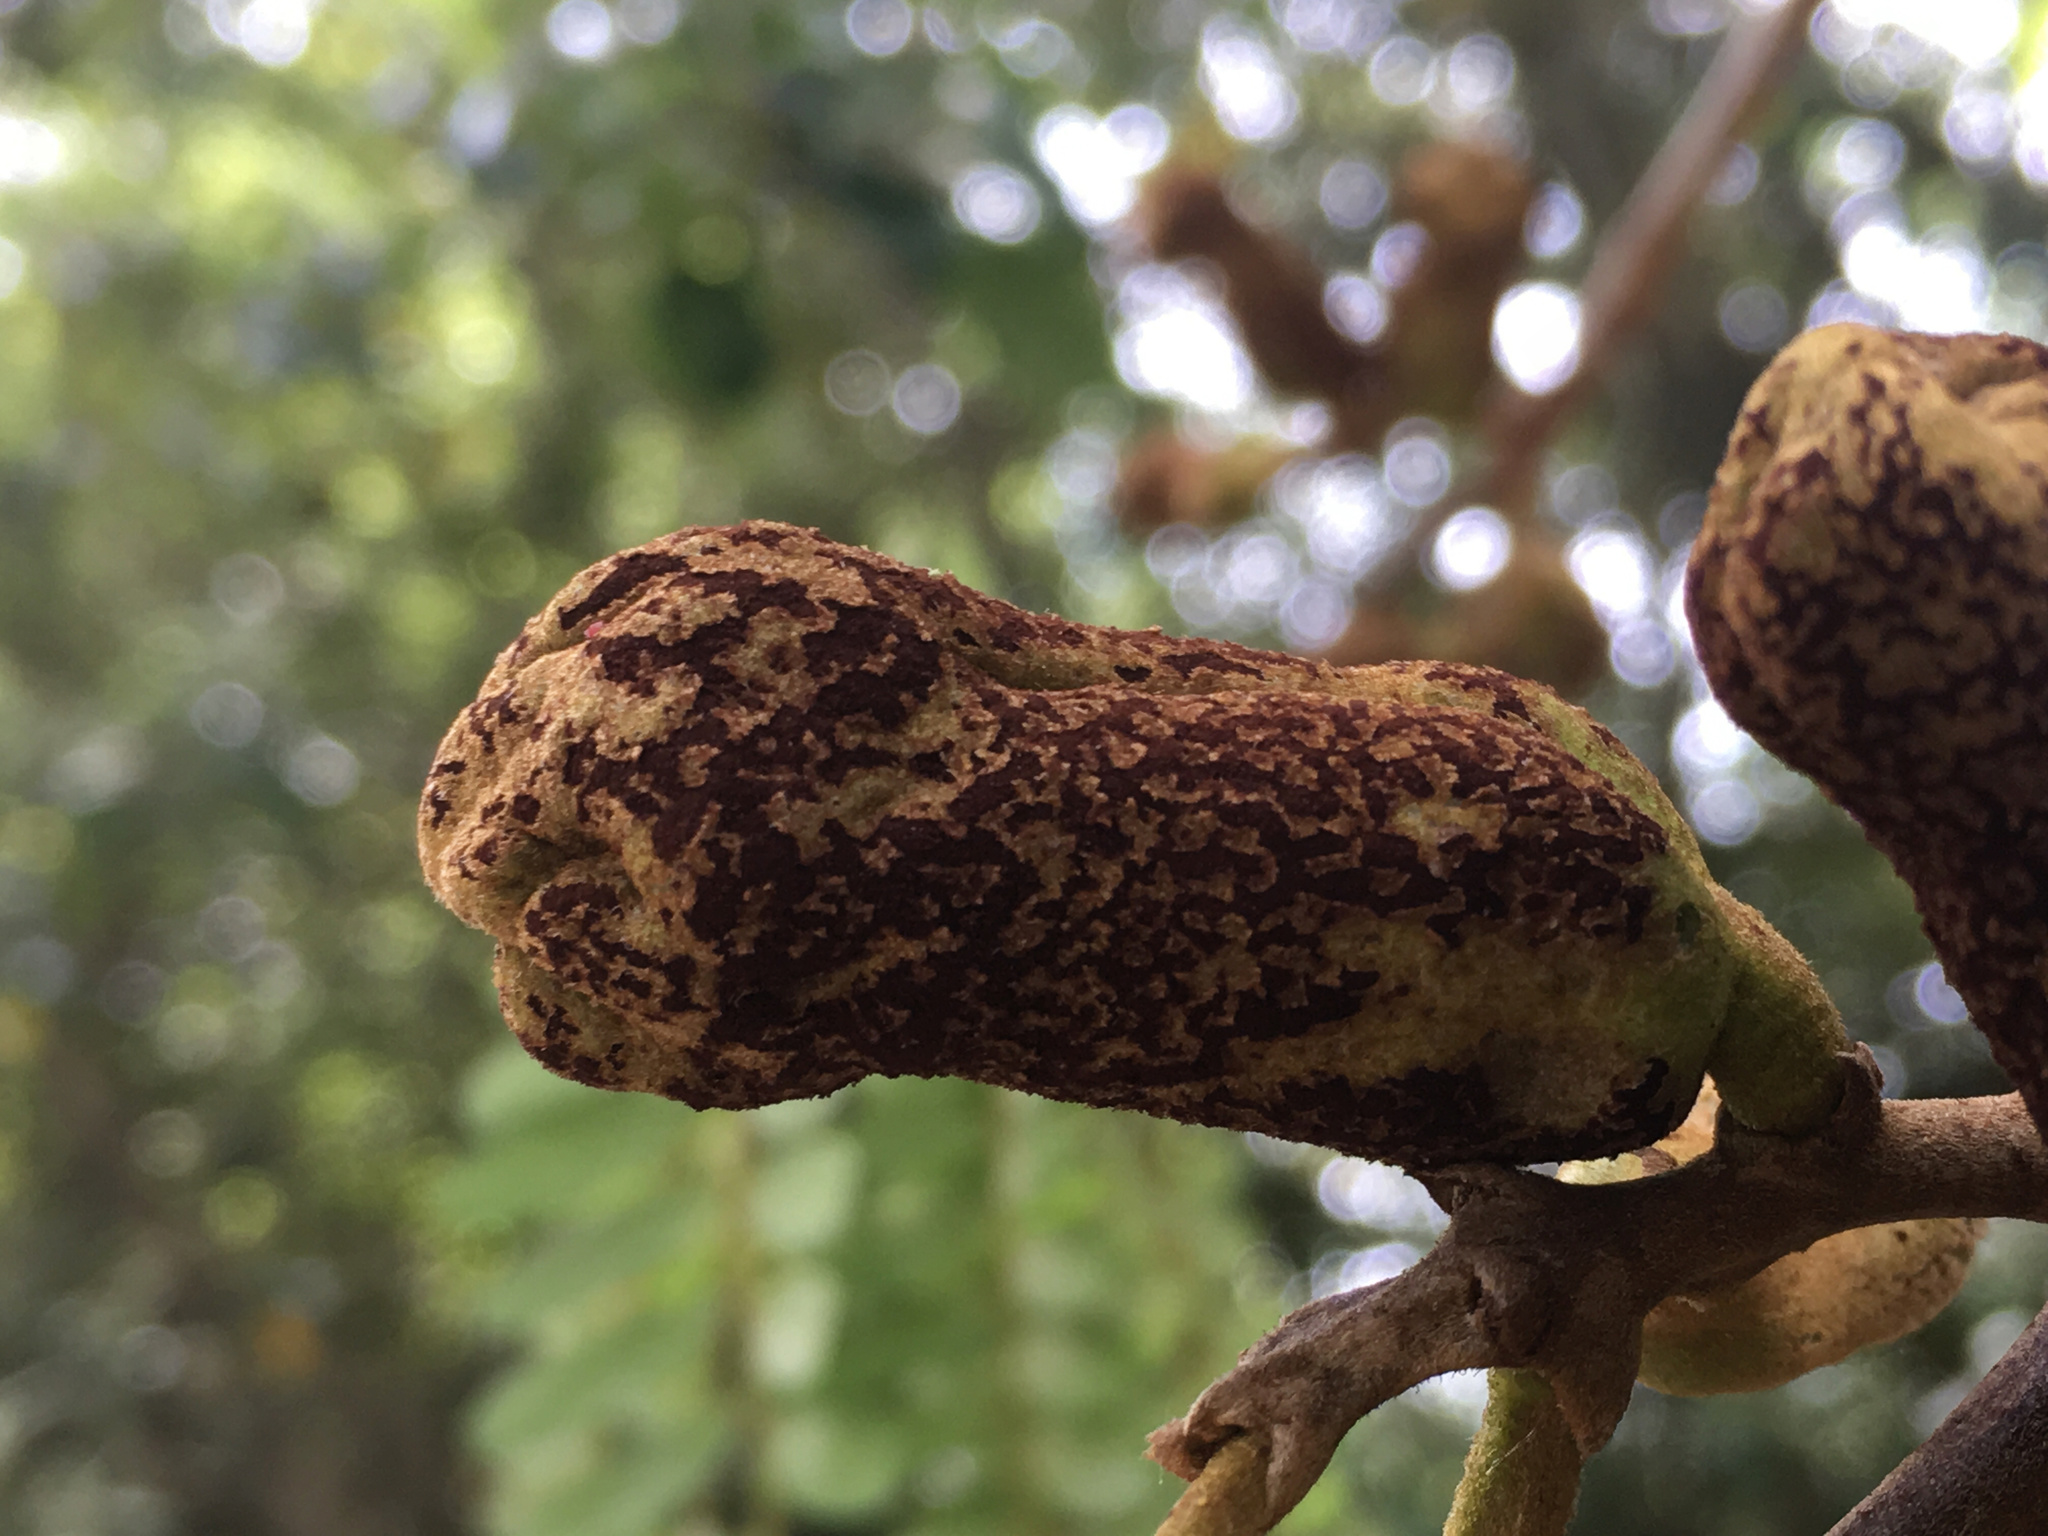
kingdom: Fungi
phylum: Basidiomycota
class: Pucciniomycetes
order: Pucciniales
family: Pucciniaceae
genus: Uromyces
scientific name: Uromyces edwardsiae
